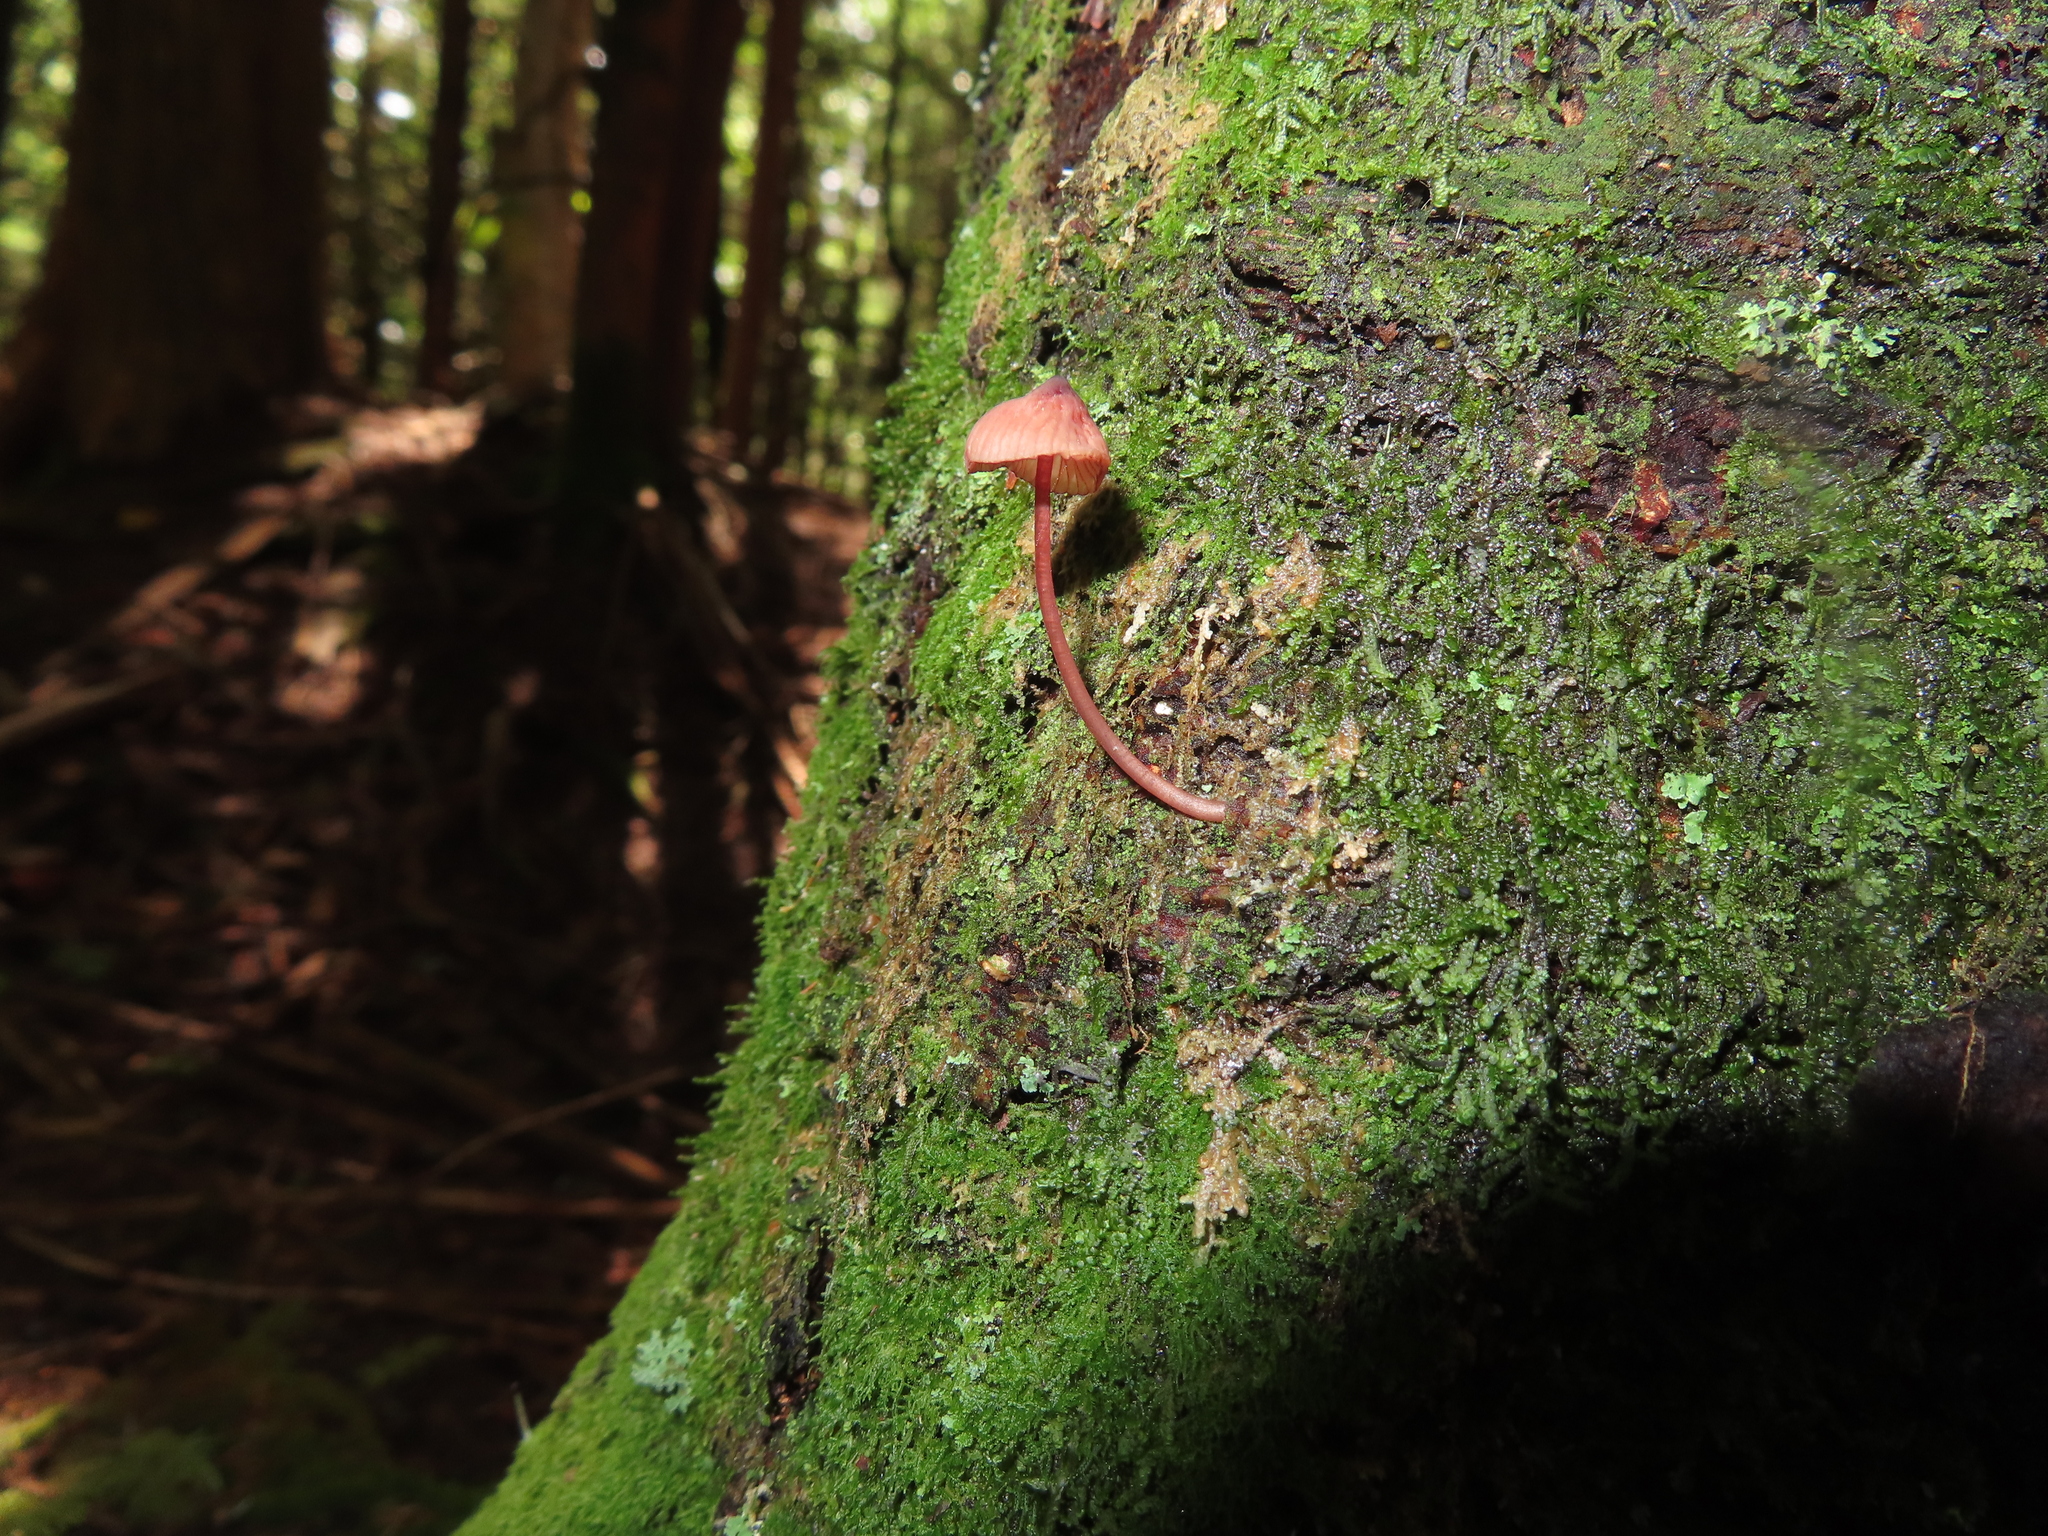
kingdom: Fungi
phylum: Basidiomycota
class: Agaricomycetes
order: Agaricales
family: Mycenaceae
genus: Mycena
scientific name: Mycena haematopus
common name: Burgundydrop bonnet
